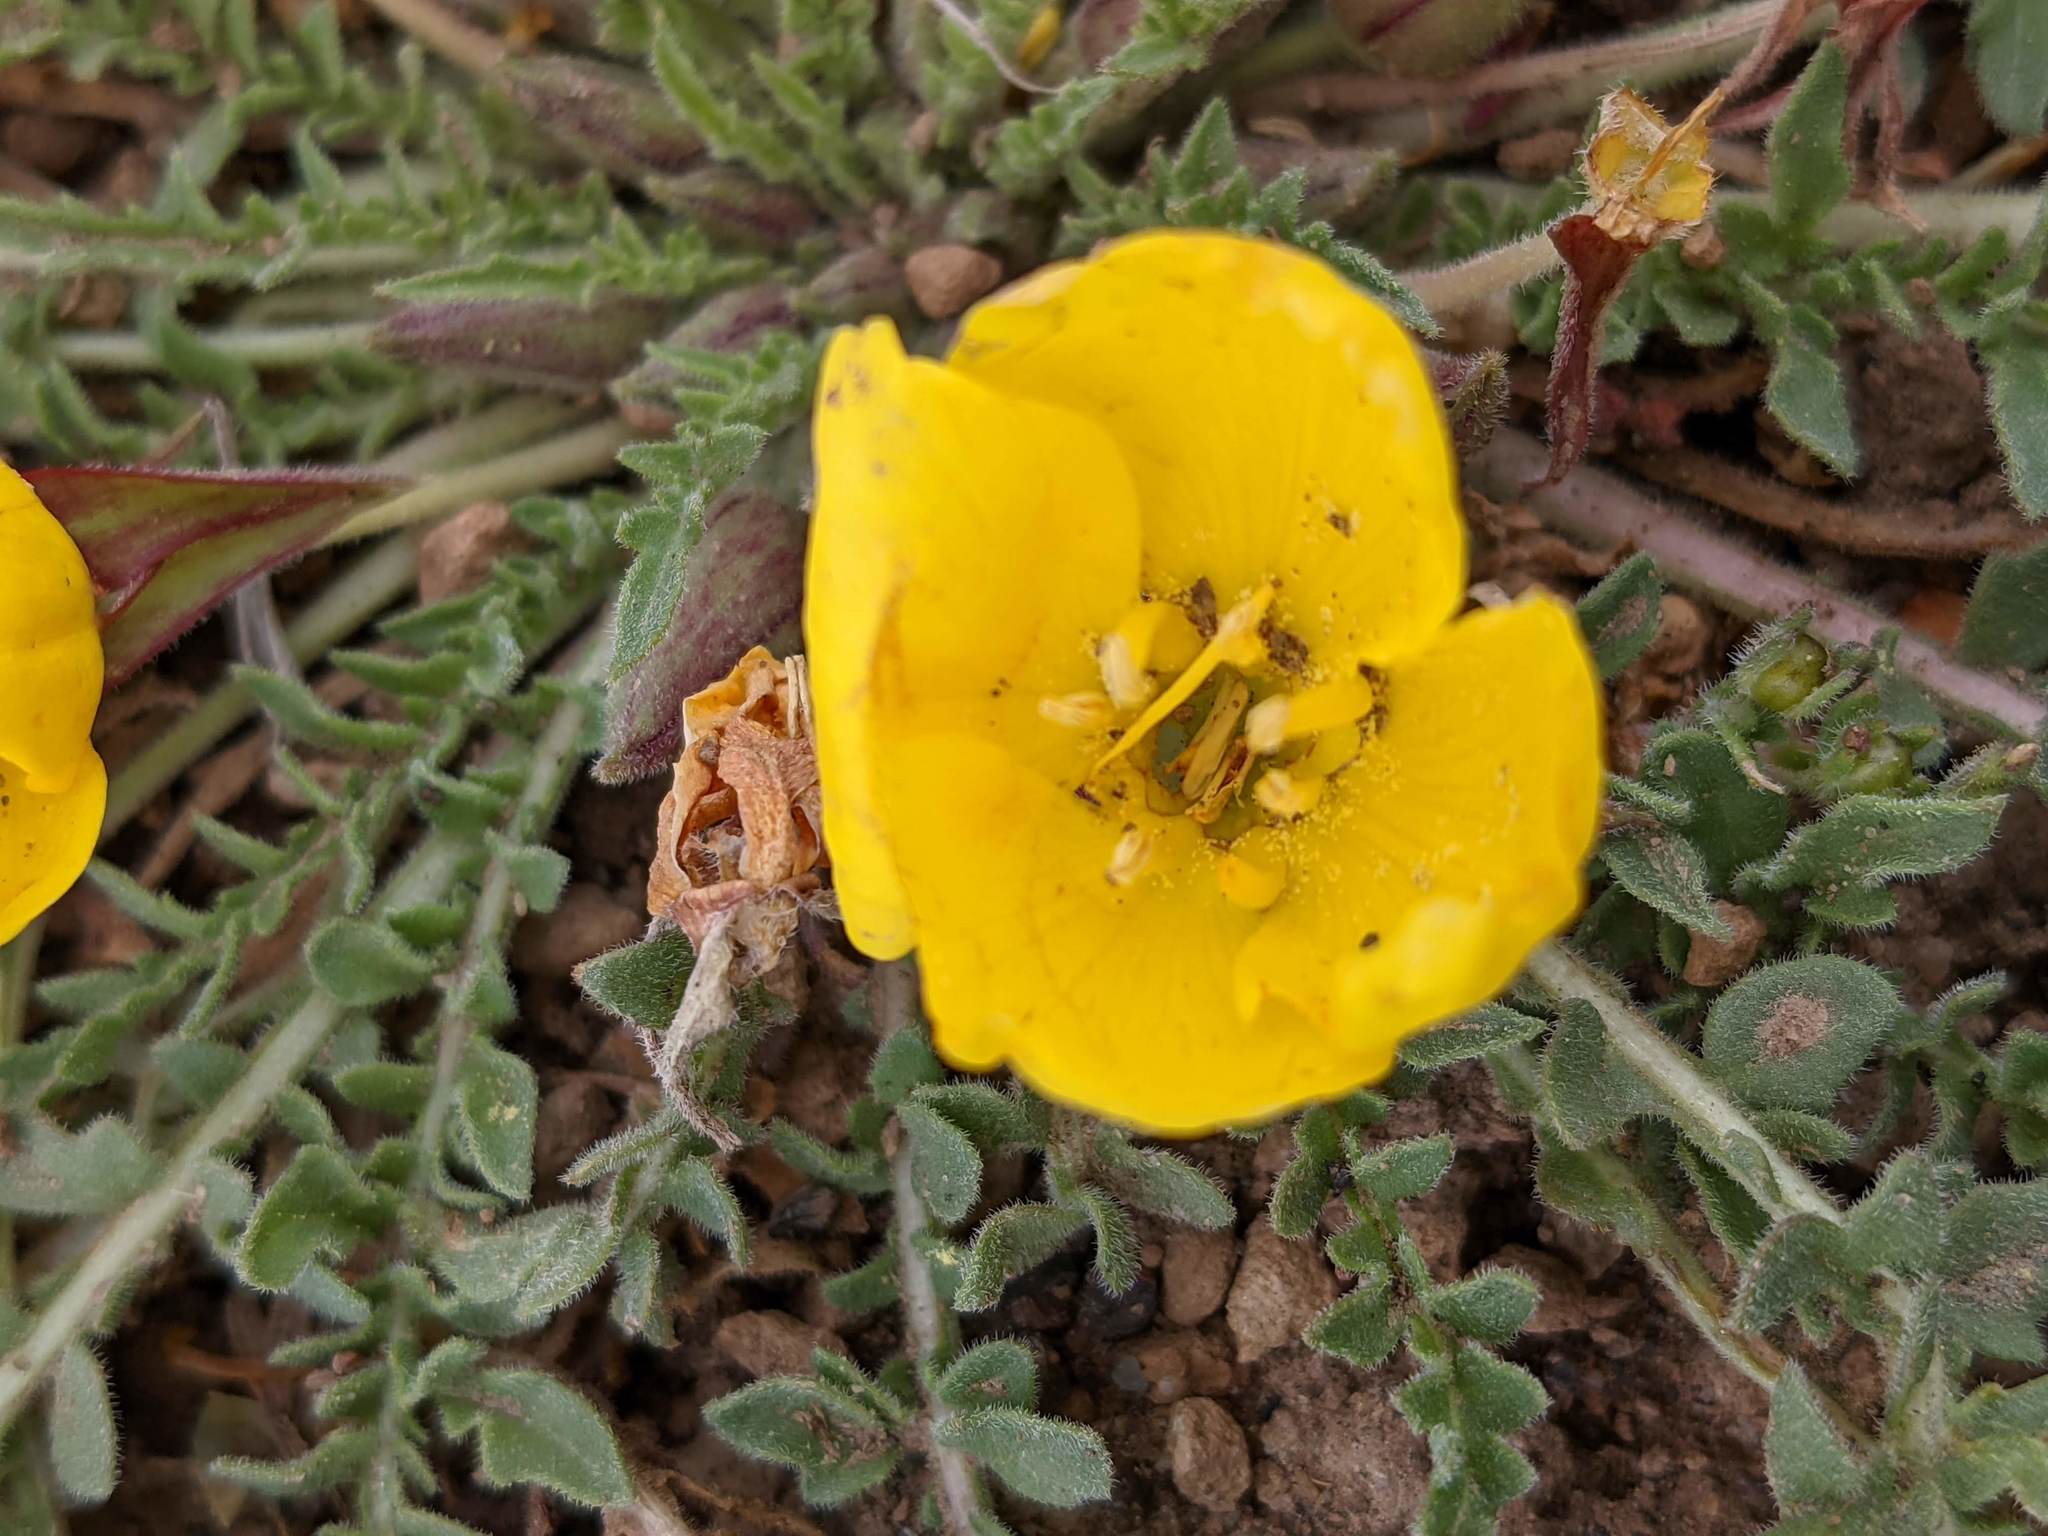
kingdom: Plantae
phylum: Tracheophyta
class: Magnoliopsida
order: Myrtales
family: Onagraceae
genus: Taraxia
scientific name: Taraxia tanacetifolia
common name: Tansyleaf evening primrose
